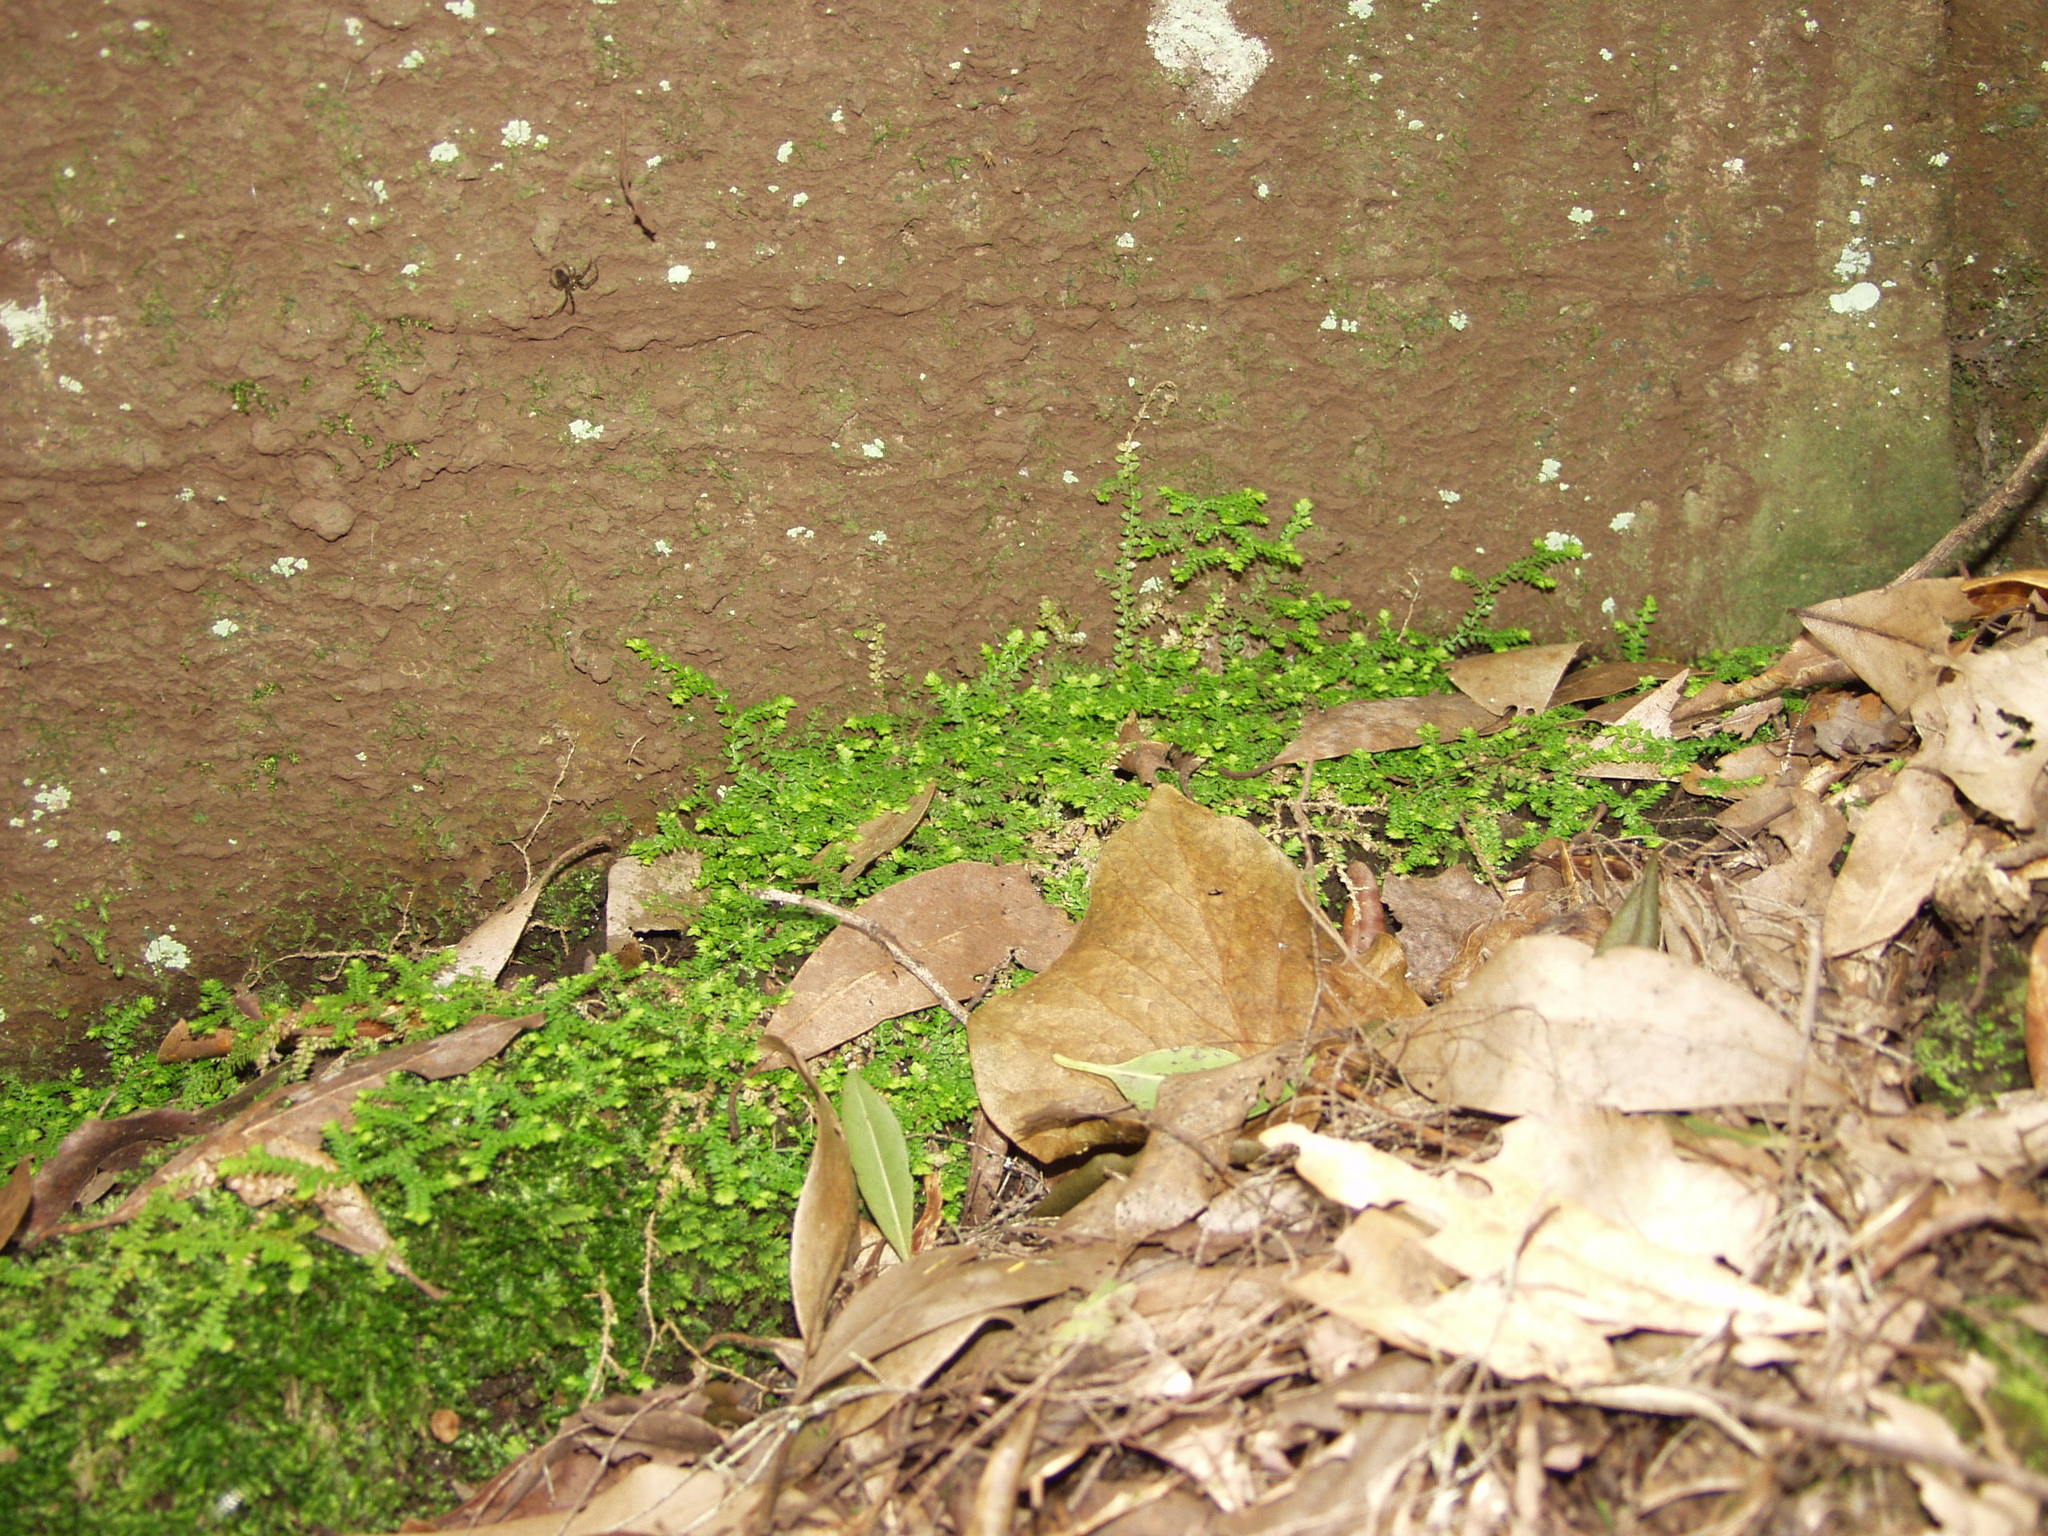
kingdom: Plantae
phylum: Tracheophyta
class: Lycopodiopsida
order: Selaginellales
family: Selaginellaceae
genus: Selaginella
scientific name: Selaginella denticulata
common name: Toothed-leaved clubmoss
